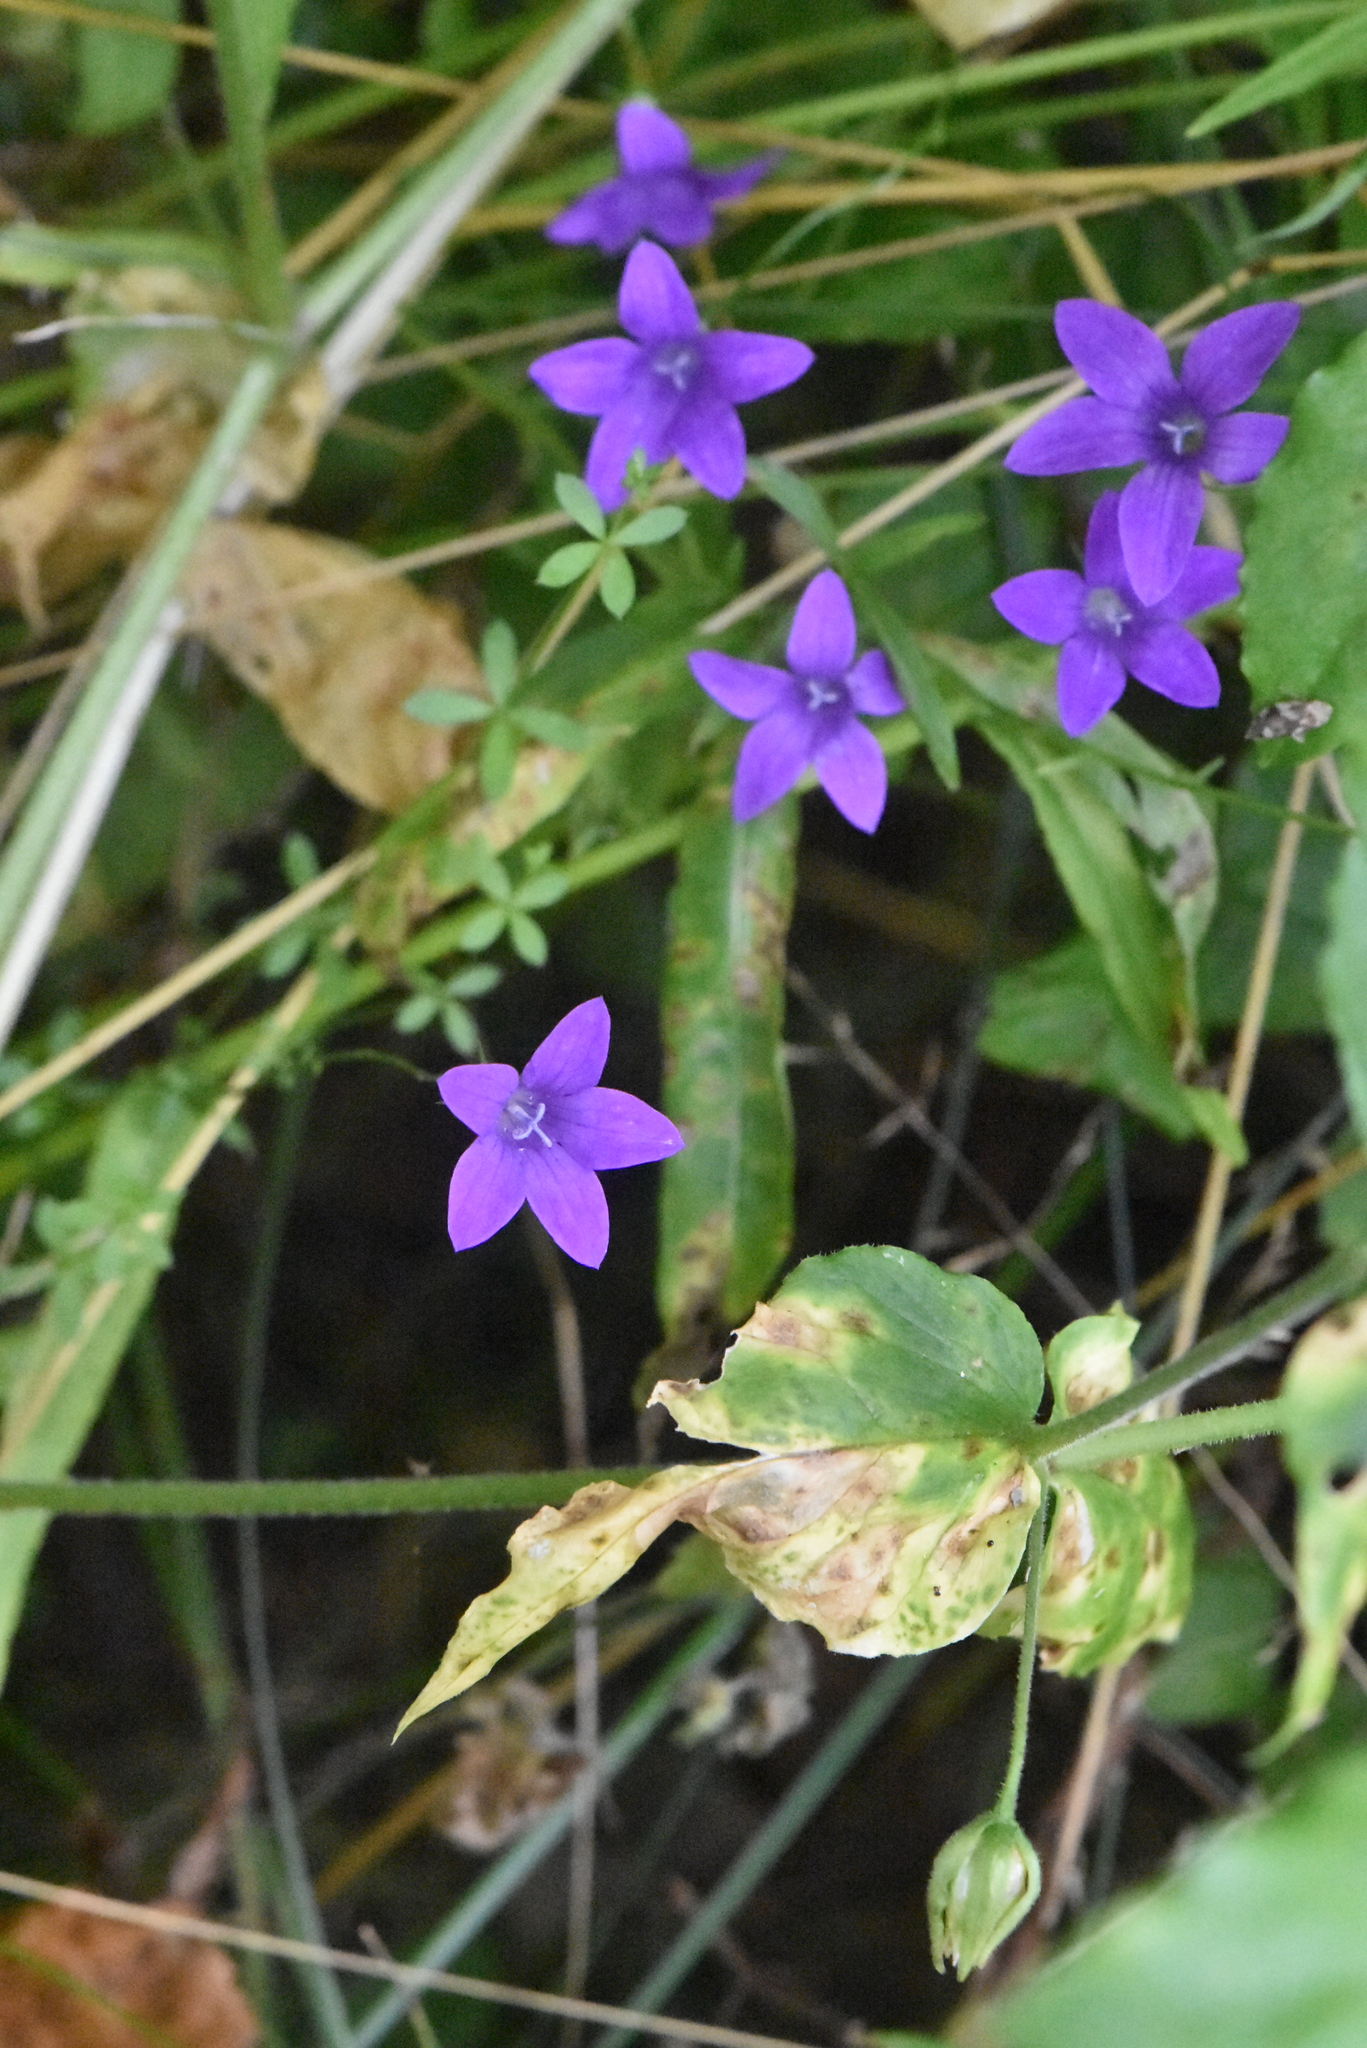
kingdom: Plantae
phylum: Tracheophyta
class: Magnoliopsida
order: Asterales
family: Campanulaceae
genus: Campanula
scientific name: Campanula patula
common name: Spreading bellflower
